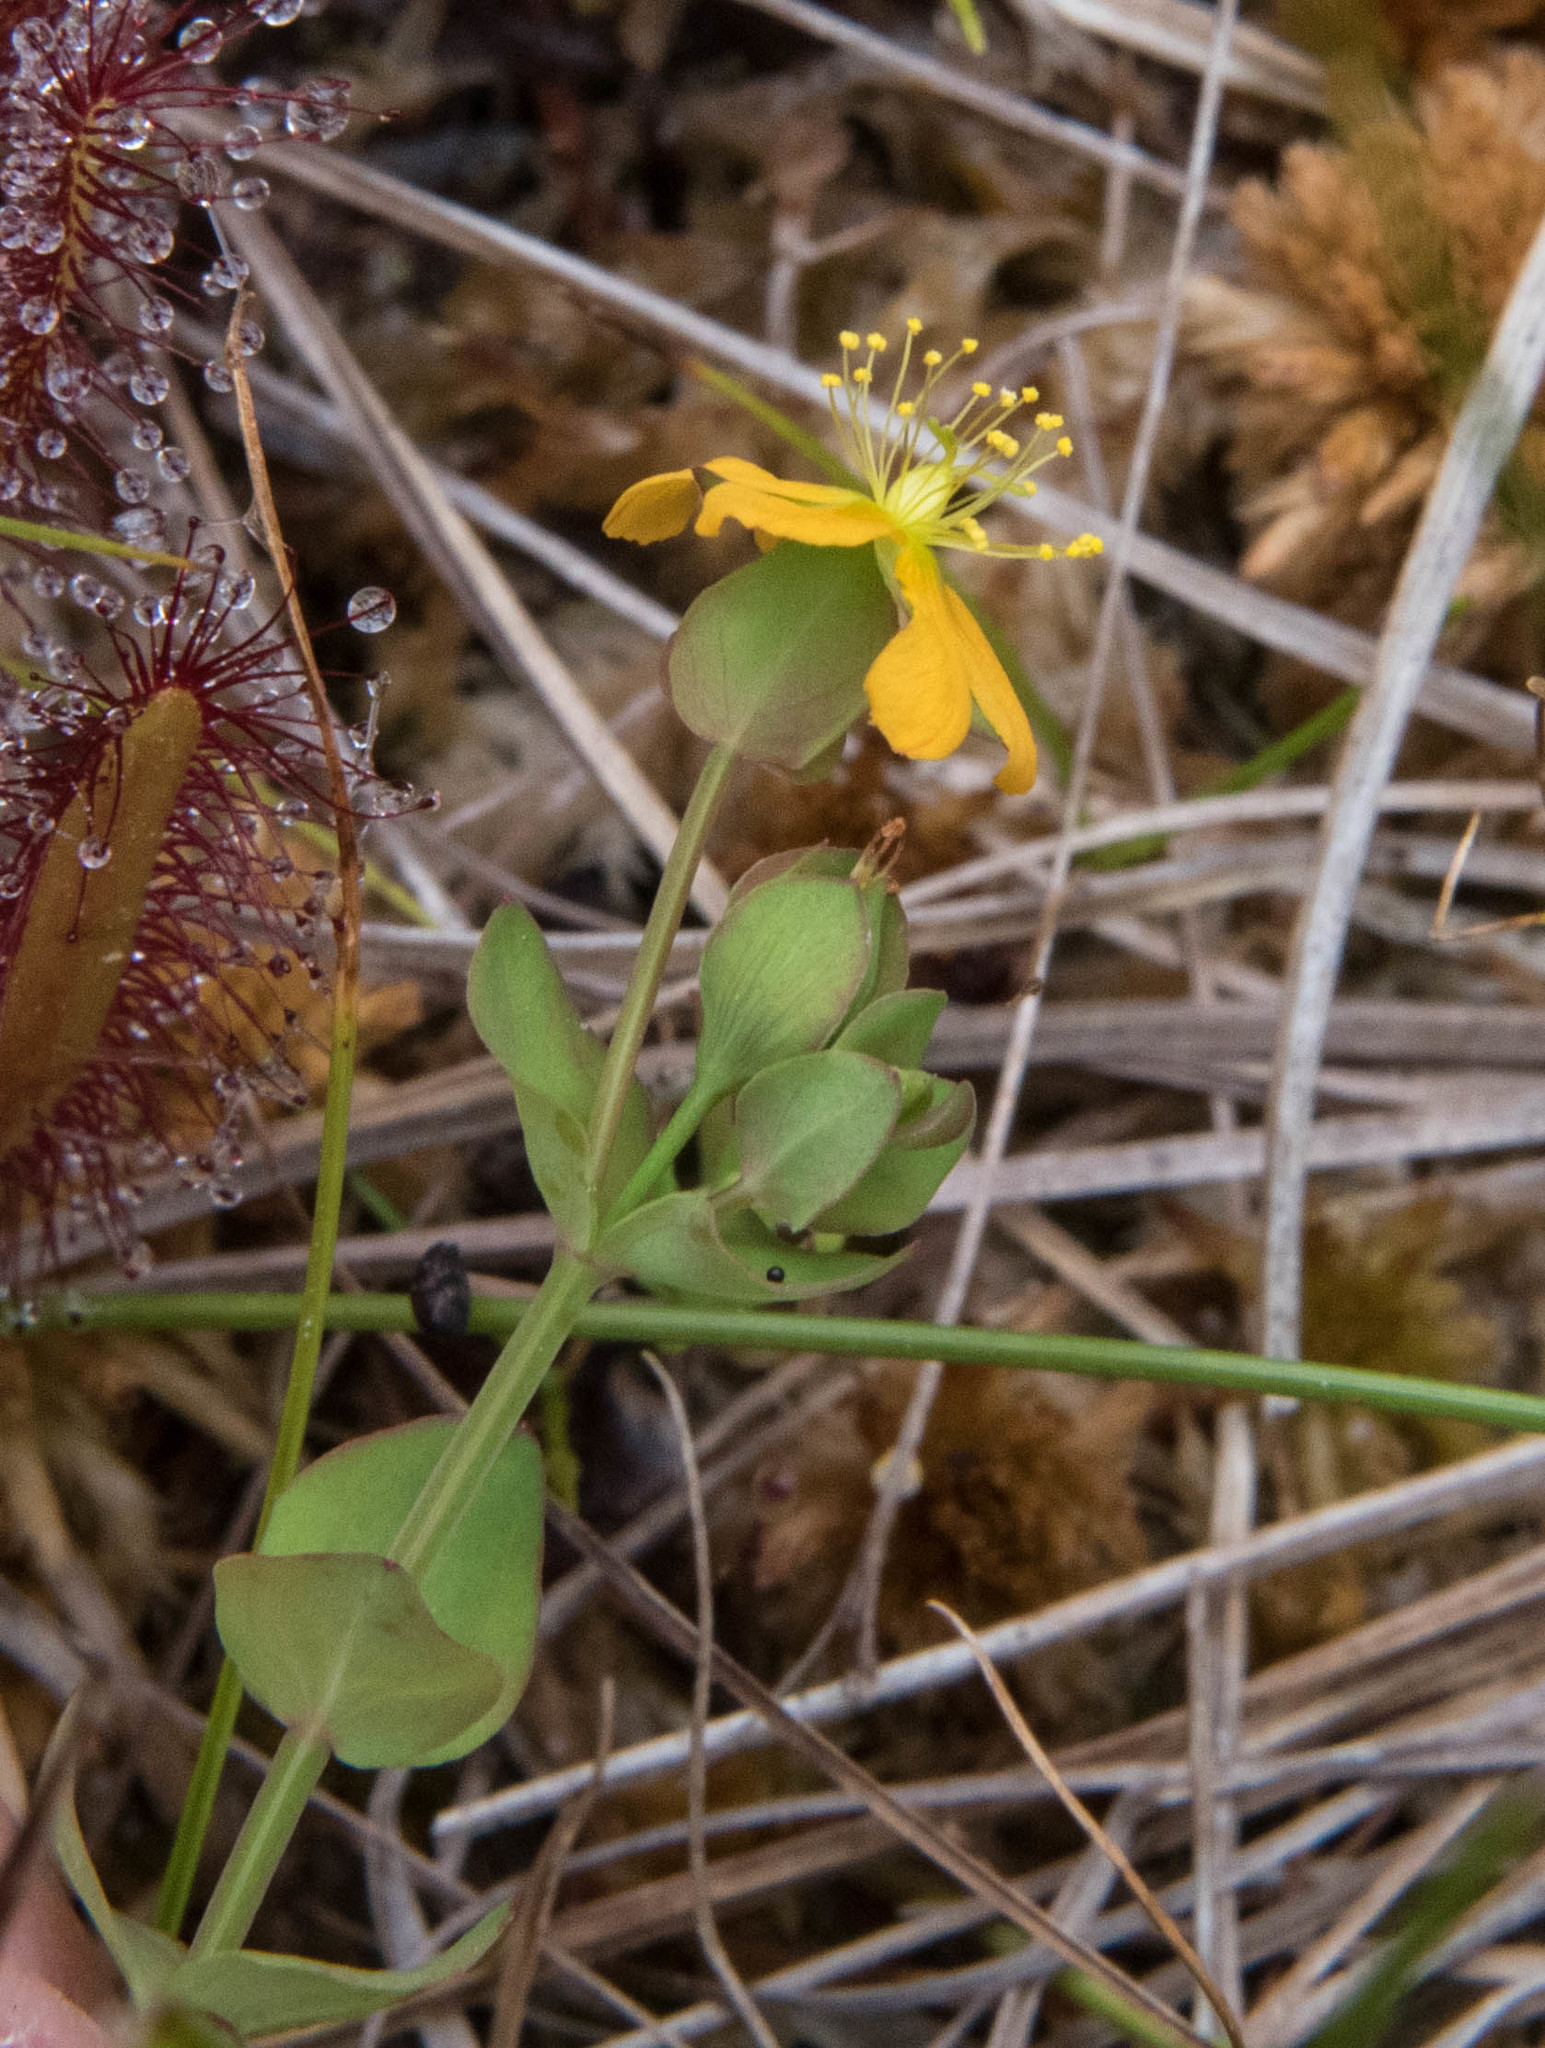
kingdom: Plantae
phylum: Tracheophyta
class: Magnoliopsida
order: Malpighiales
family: Hypericaceae
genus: Hypericum
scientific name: Hypericum anagalloides
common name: Bog st. john's-wort
